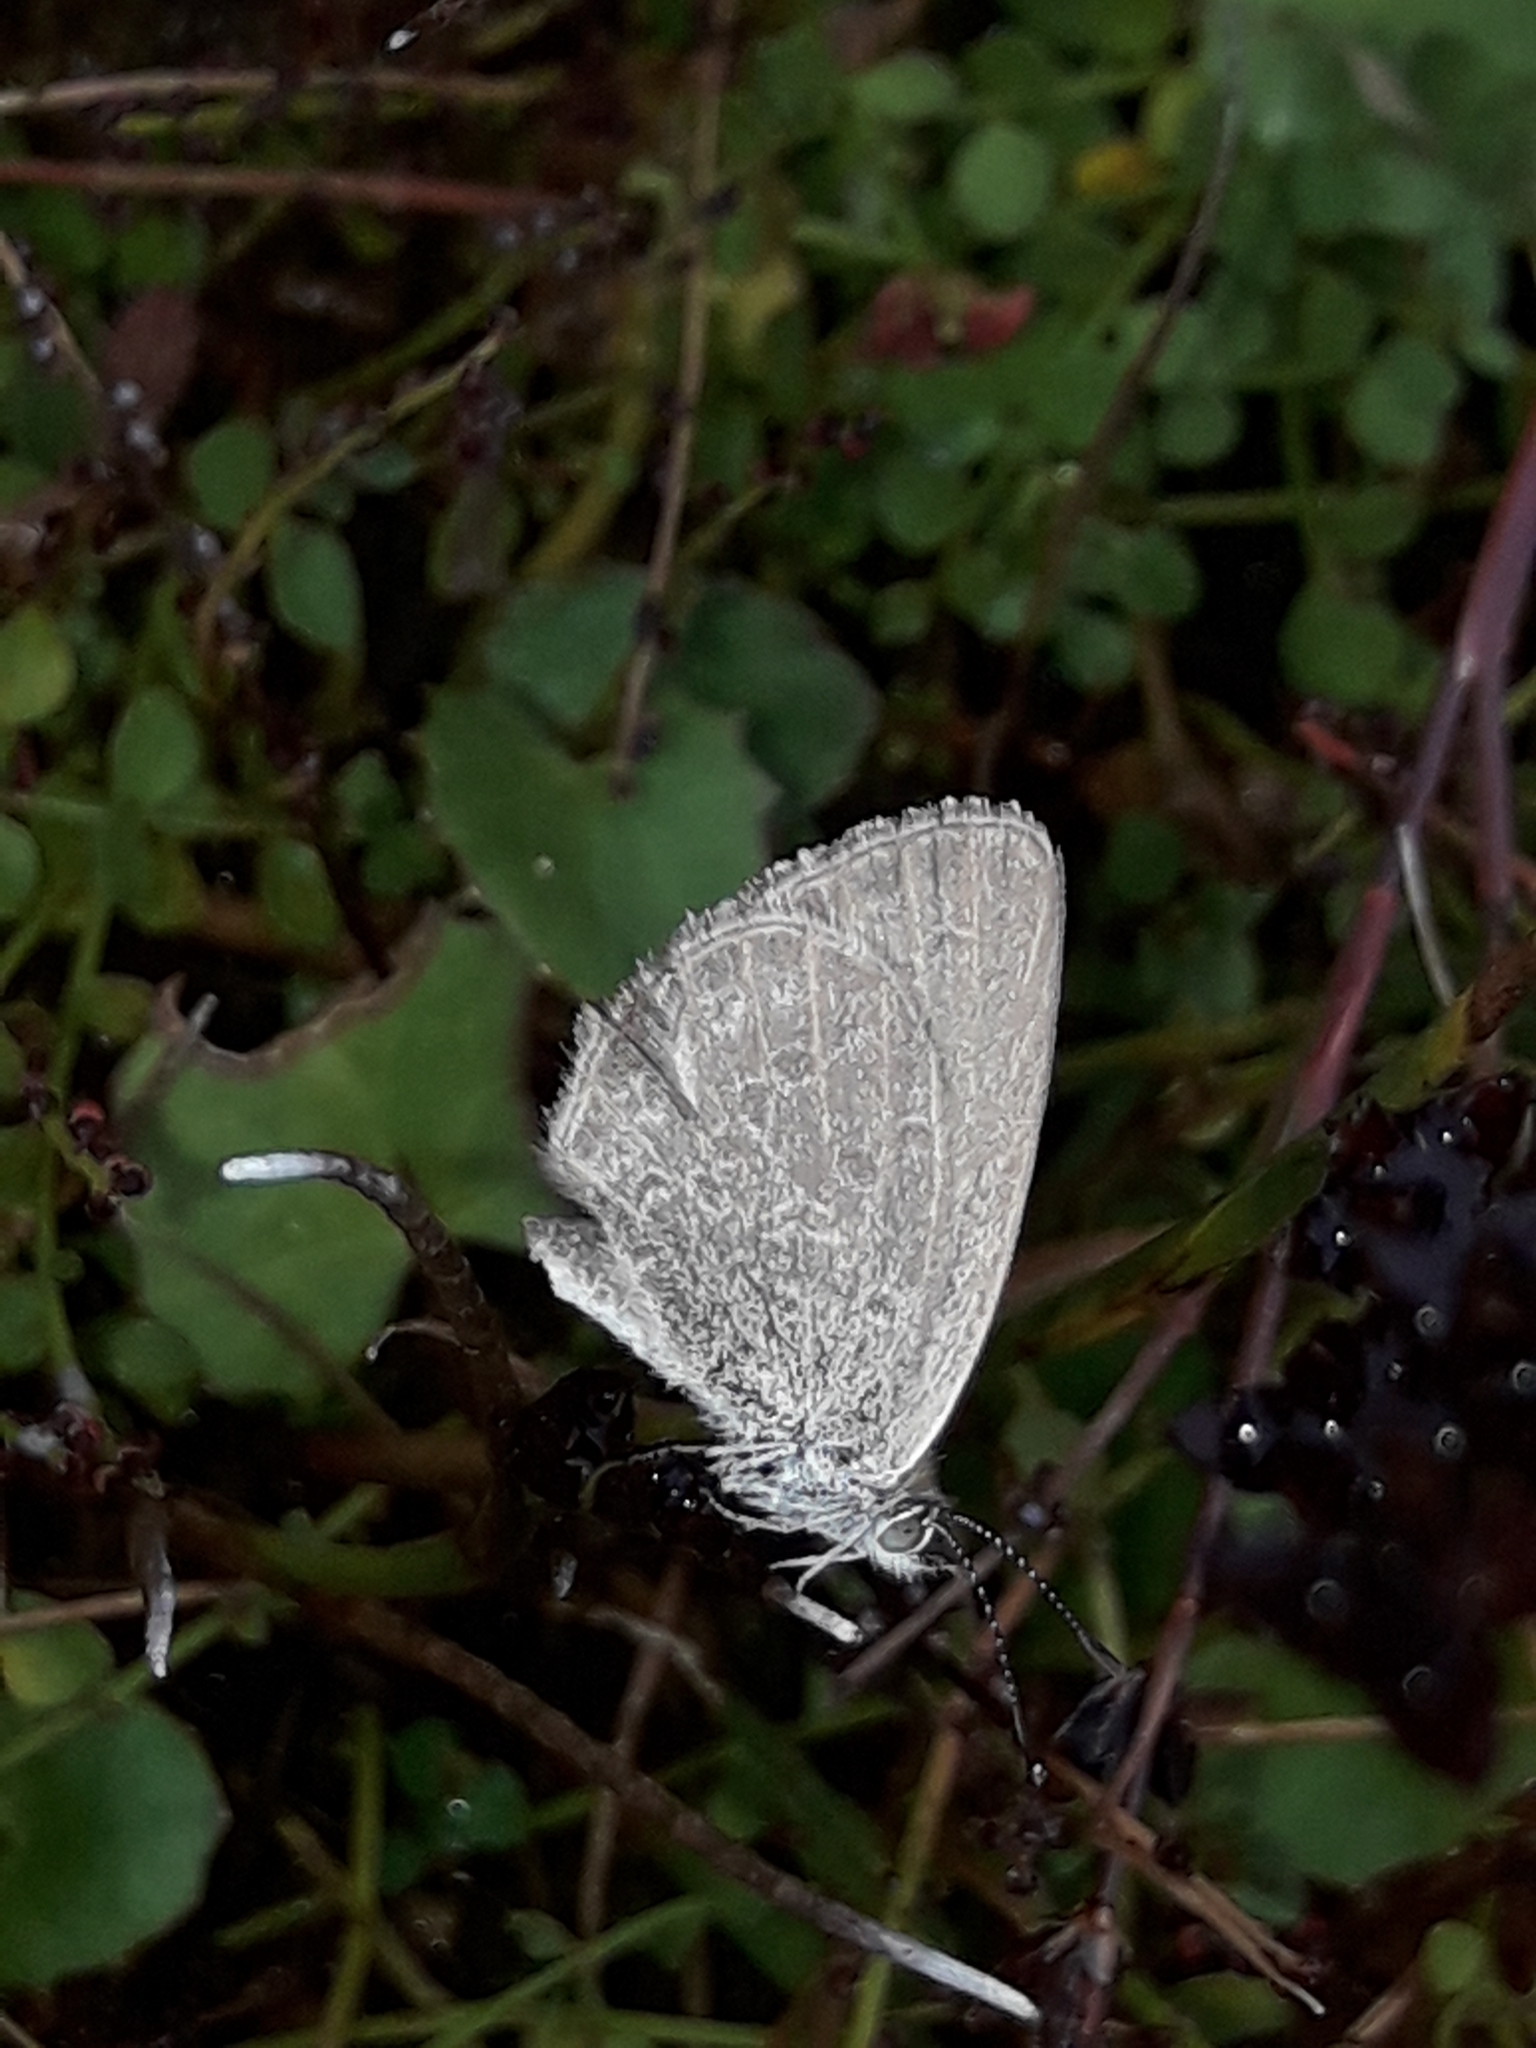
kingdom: Animalia
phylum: Arthropoda
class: Insecta
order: Lepidoptera
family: Lycaenidae
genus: Zizina
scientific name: Zizina labradus
